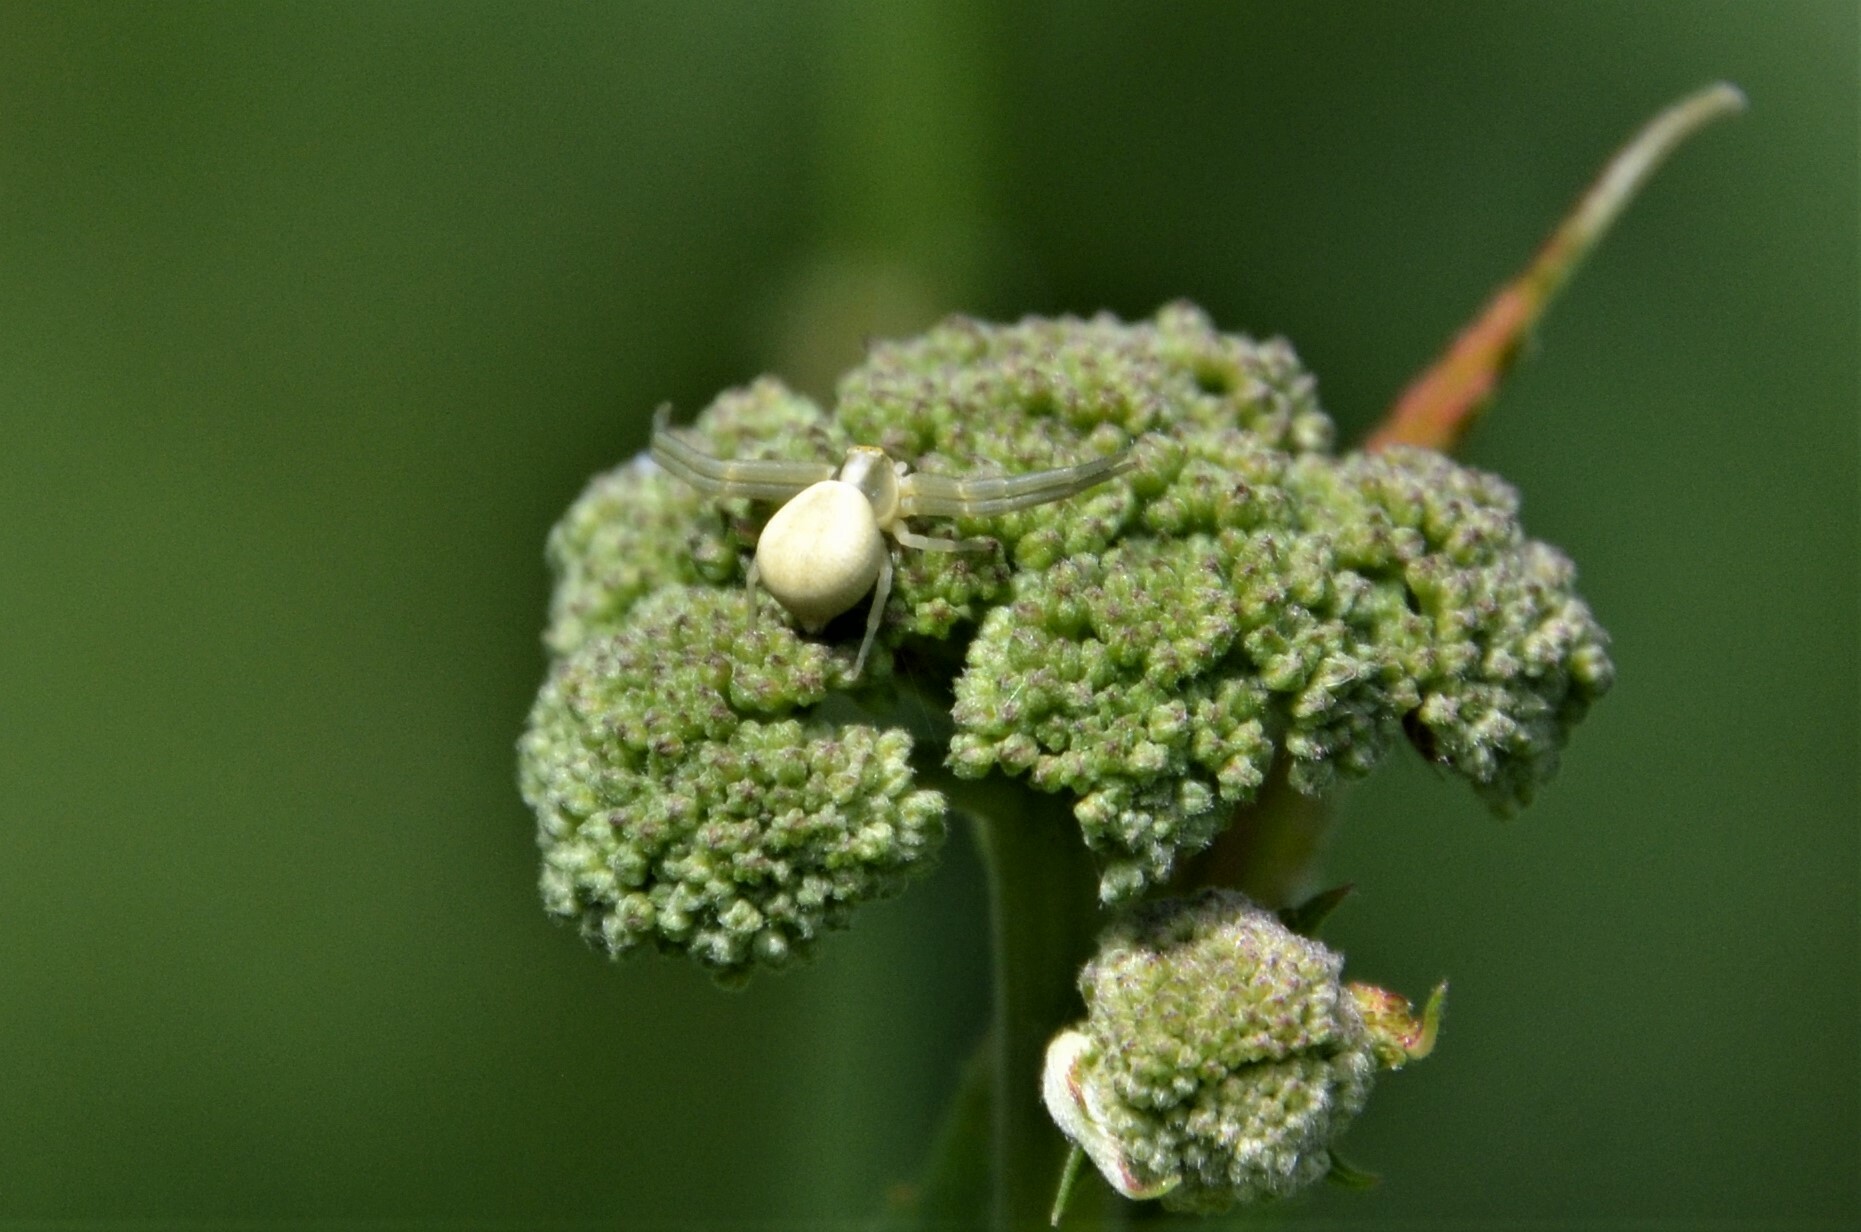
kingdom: Animalia
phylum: Arthropoda
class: Arachnida
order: Araneae
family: Thomisidae
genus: Misumena
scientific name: Misumena vatia
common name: Goldenrod crab spider
